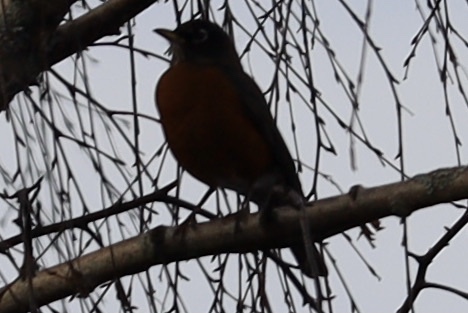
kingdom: Animalia
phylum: Chordata
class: Aves
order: Passeriformes
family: Turdidae
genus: Turdus
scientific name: Turdus migratorius
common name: American robin
